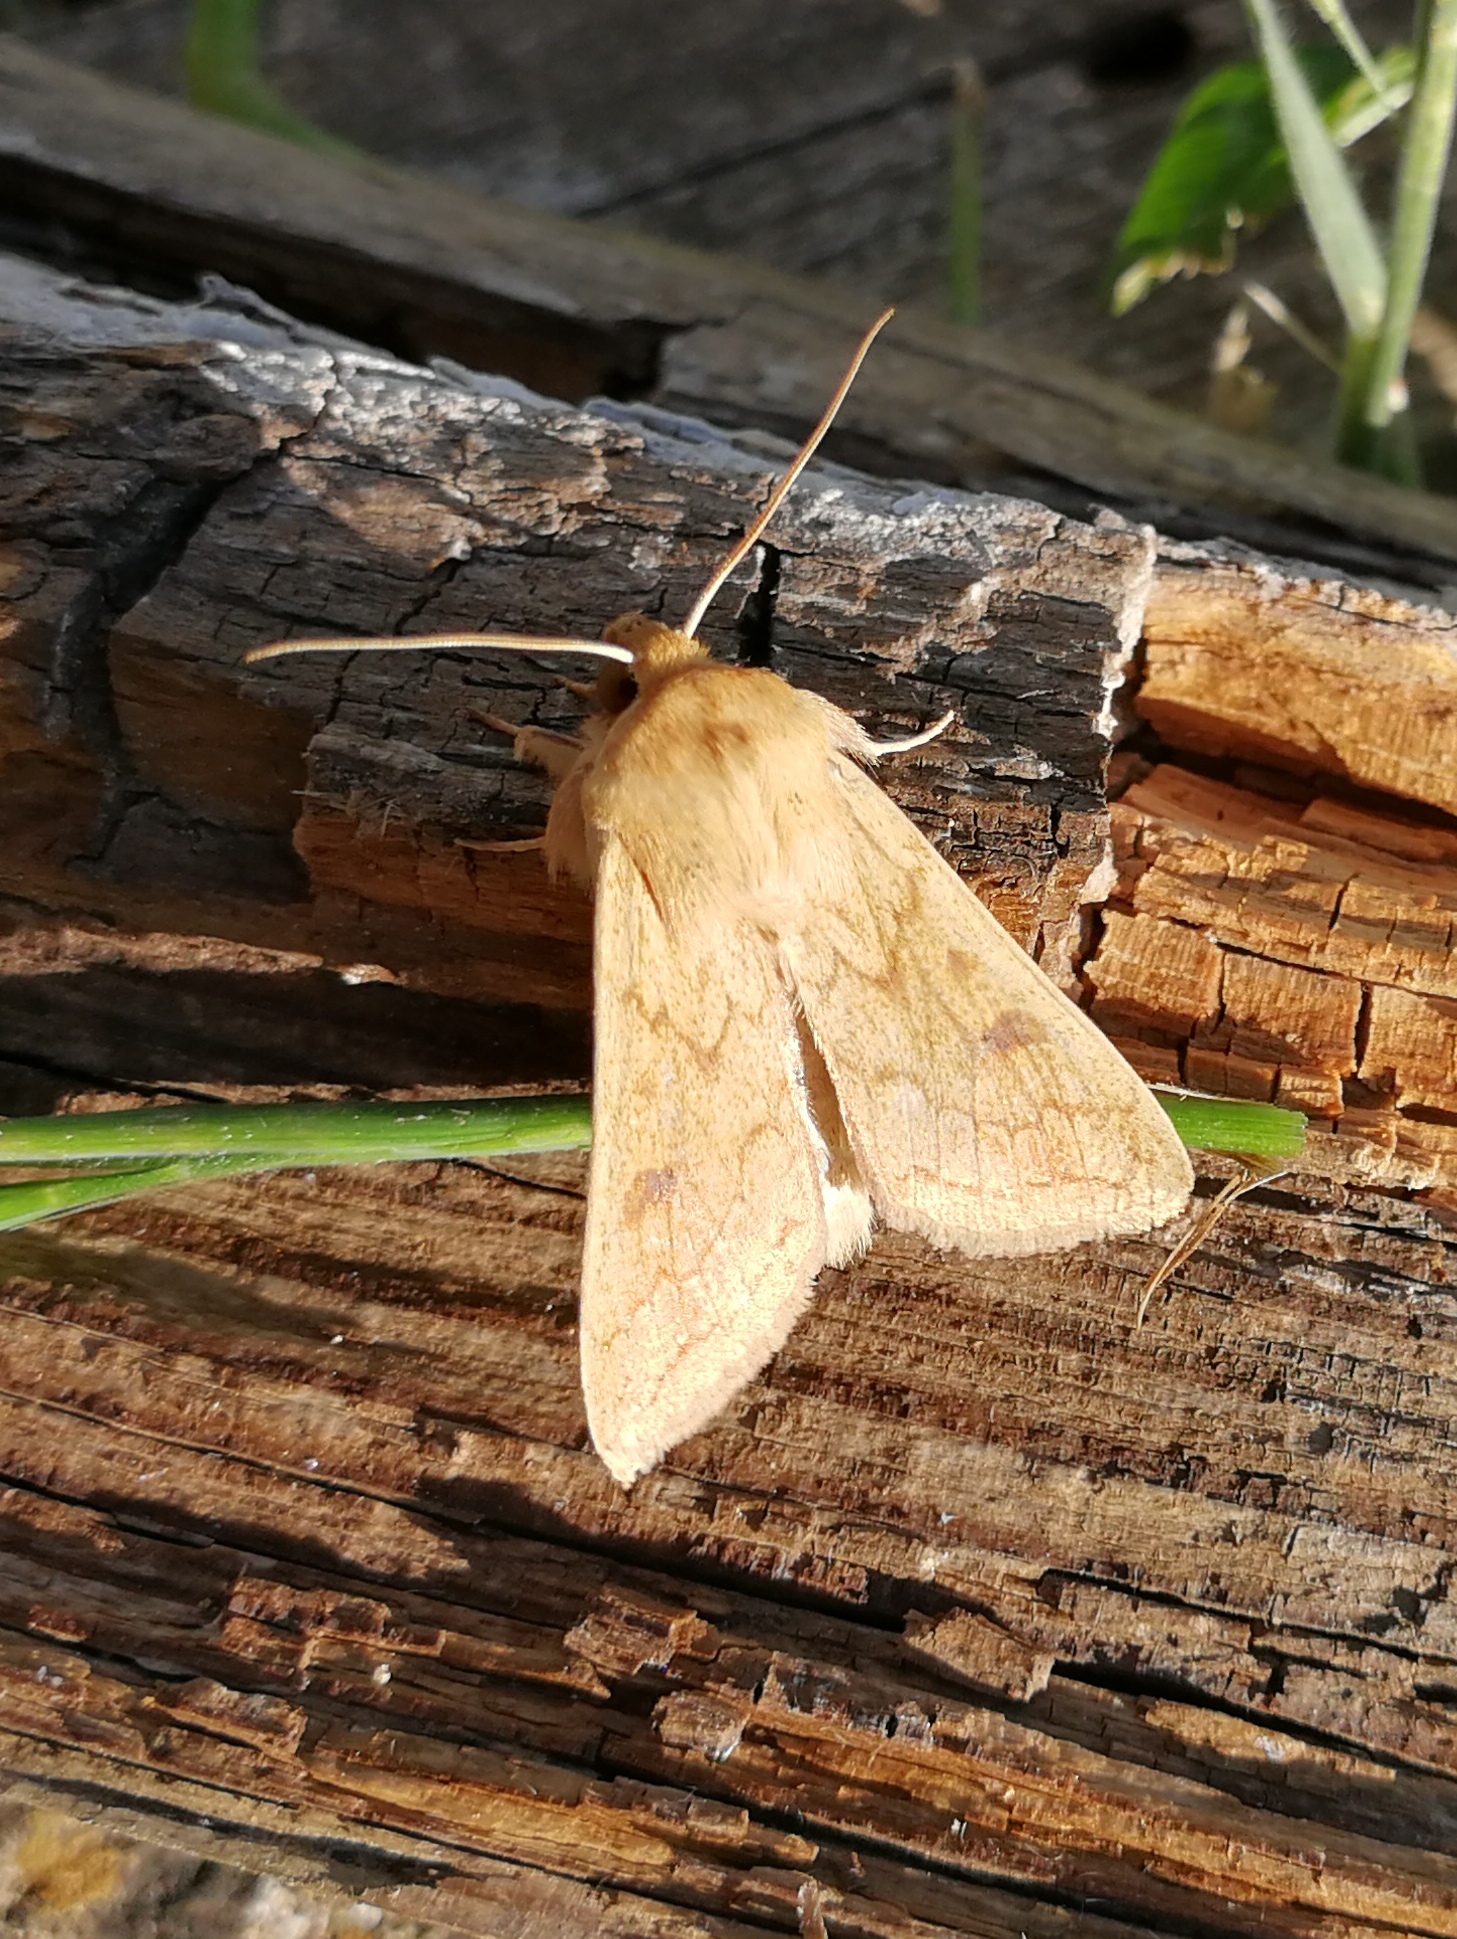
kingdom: Animalia
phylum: Arthropoda
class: Insecta
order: Lepidoptera
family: Noctuidae
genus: Mythimna
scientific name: Mythimna vitellina
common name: Delicate
